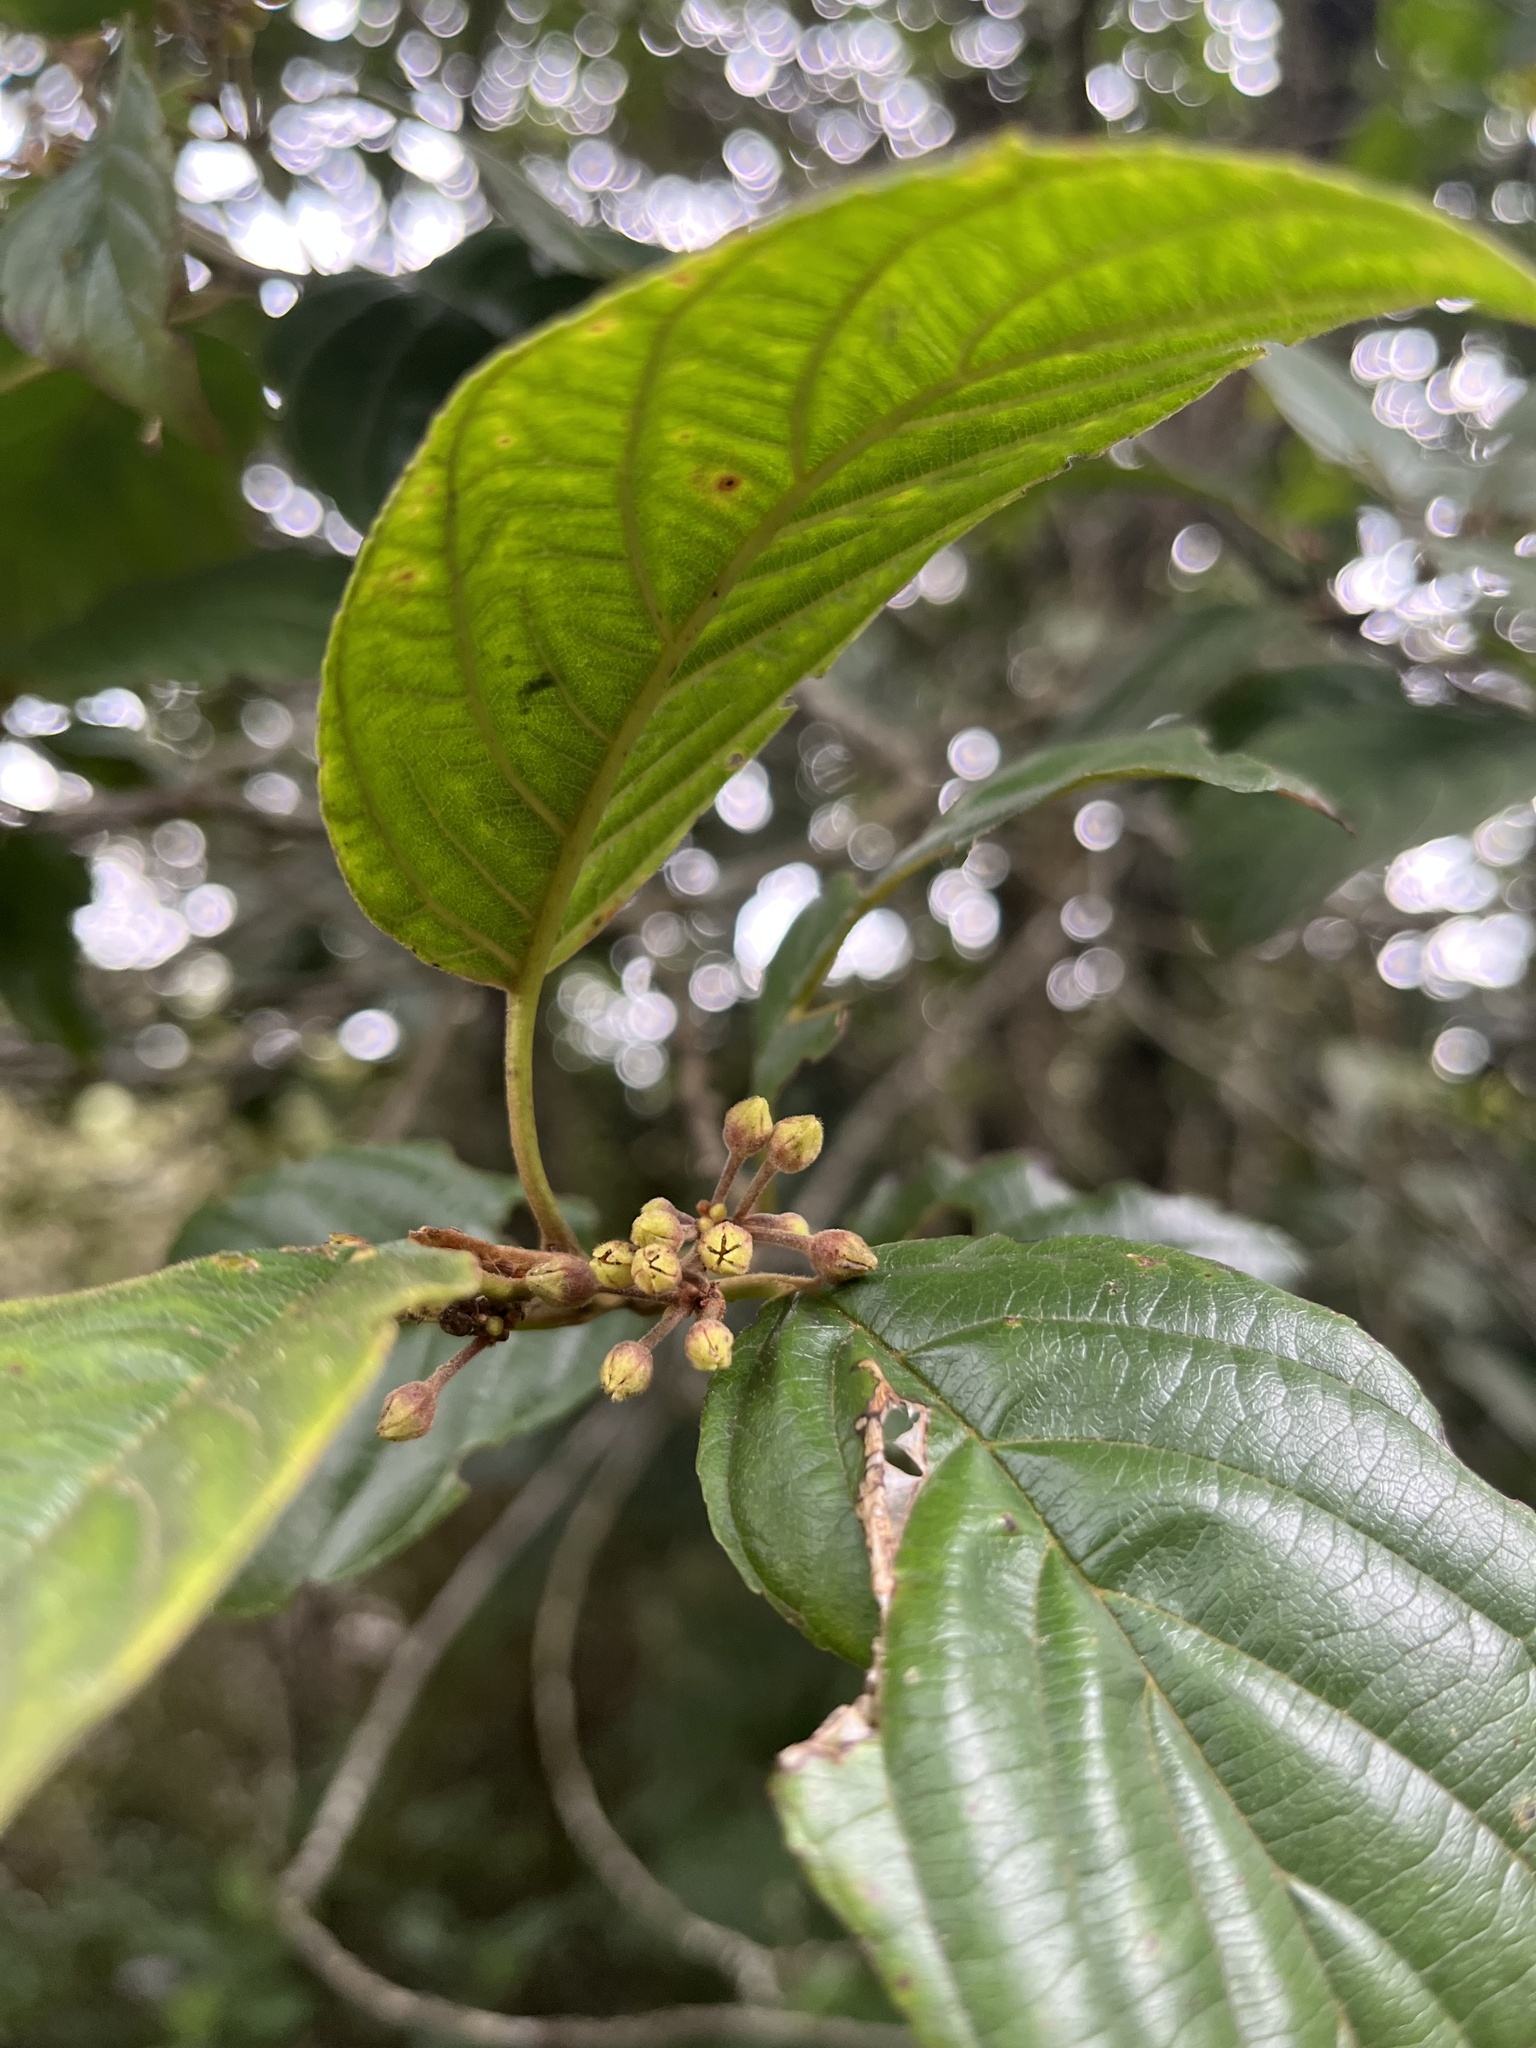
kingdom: Plantae
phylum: Tracheophyta
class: Magnoliopsida
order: Rosales
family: Rhamnaceae
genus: Frangula
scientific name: Frangula sphaerosperma
